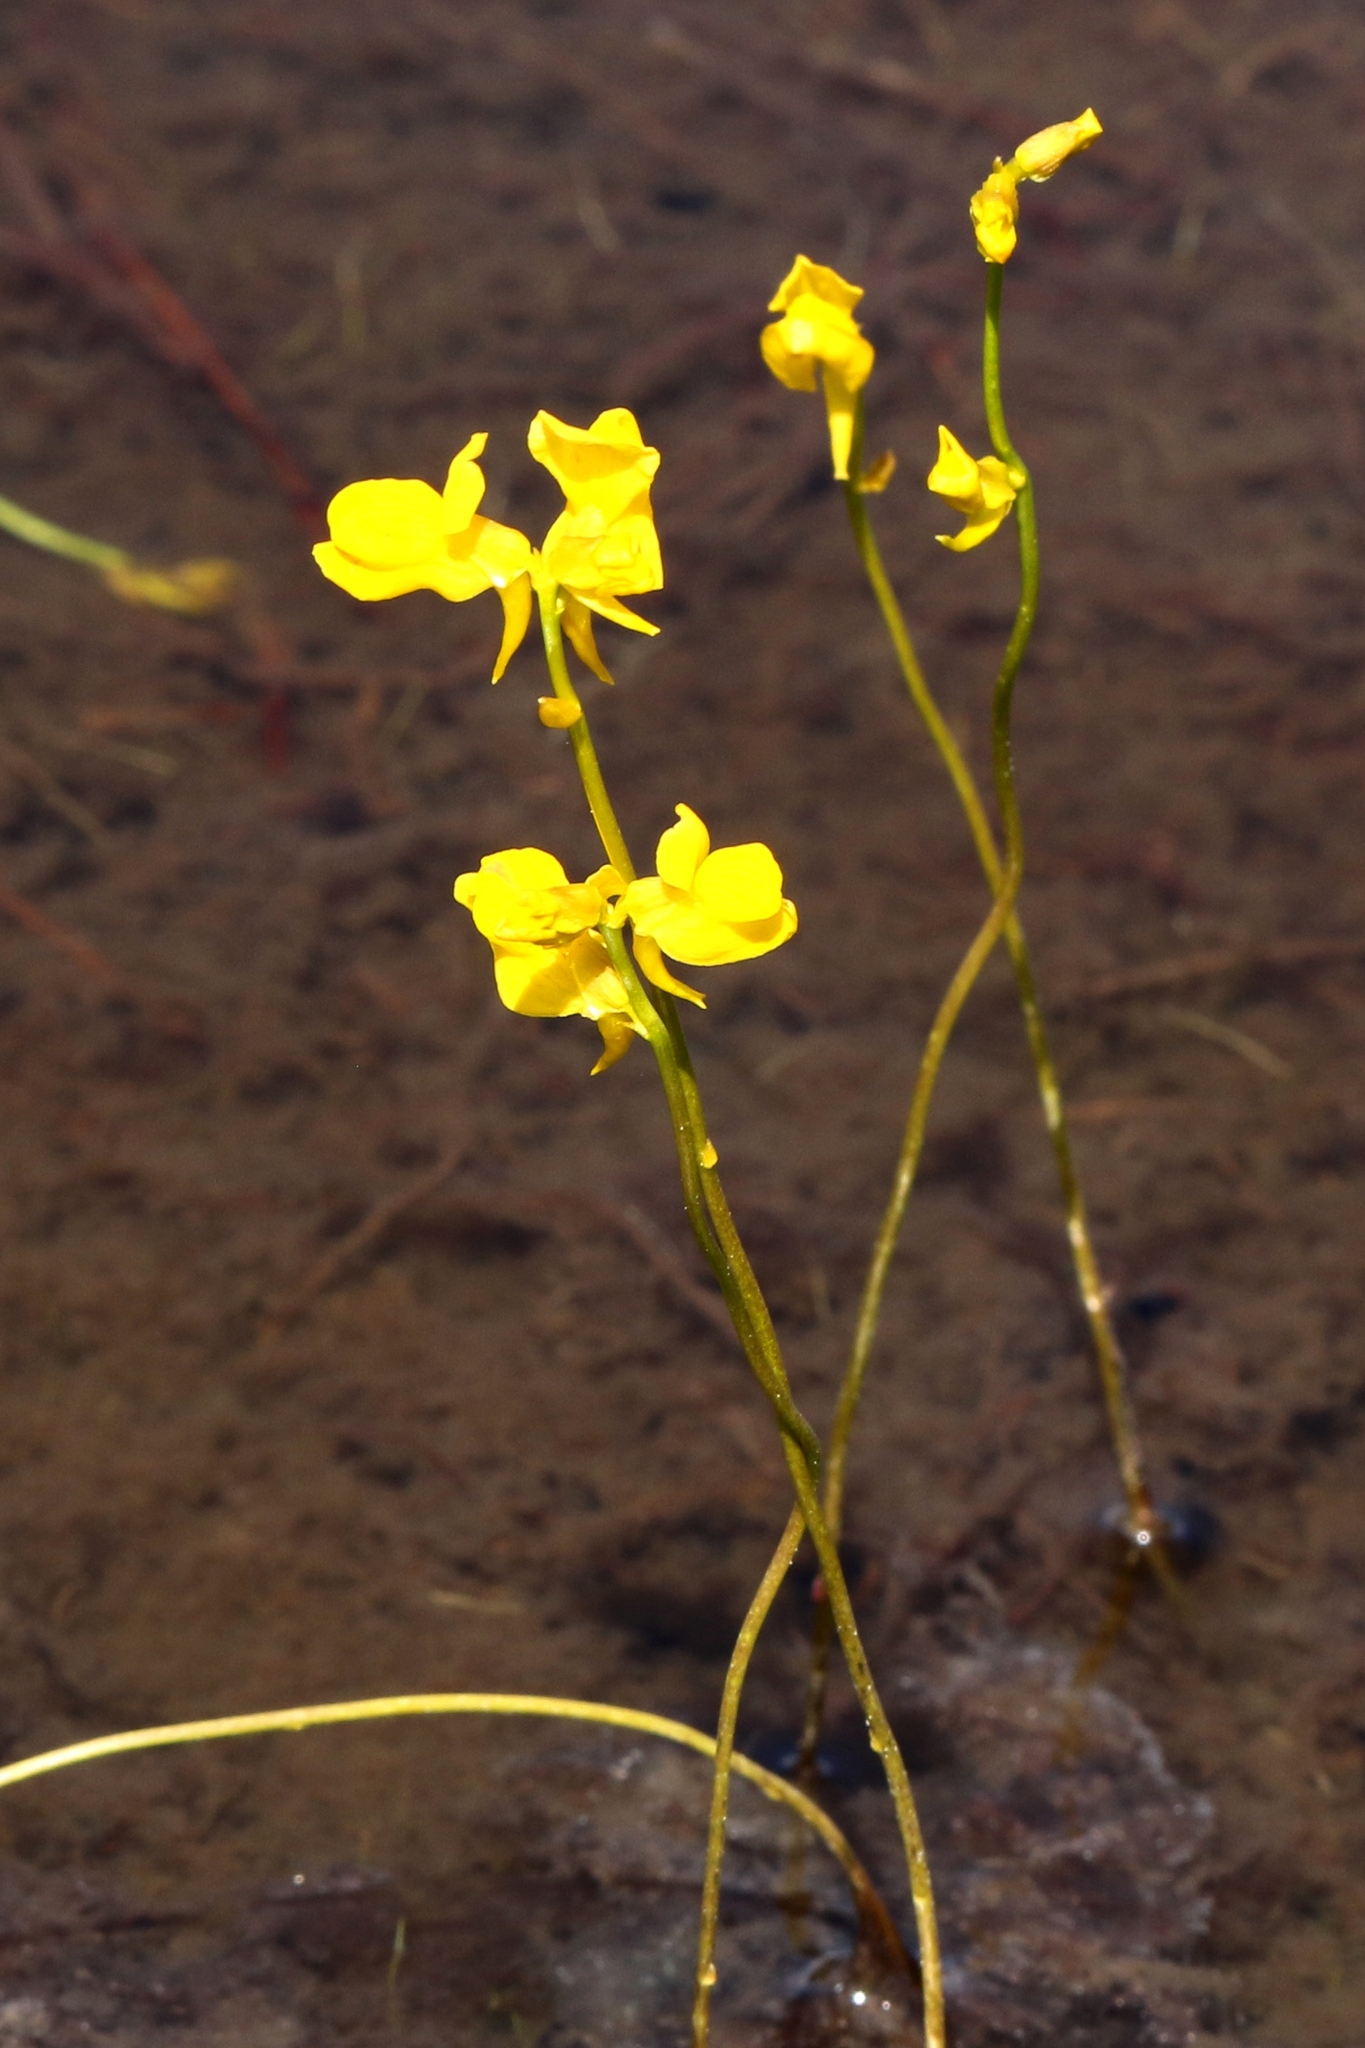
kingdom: Plantae
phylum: Tracheophyta
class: Magnoliopsida
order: Lamiales
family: Lentibulariaceae
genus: Utricularia
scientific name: Utricularia cornuta
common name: Horned bladderwort
